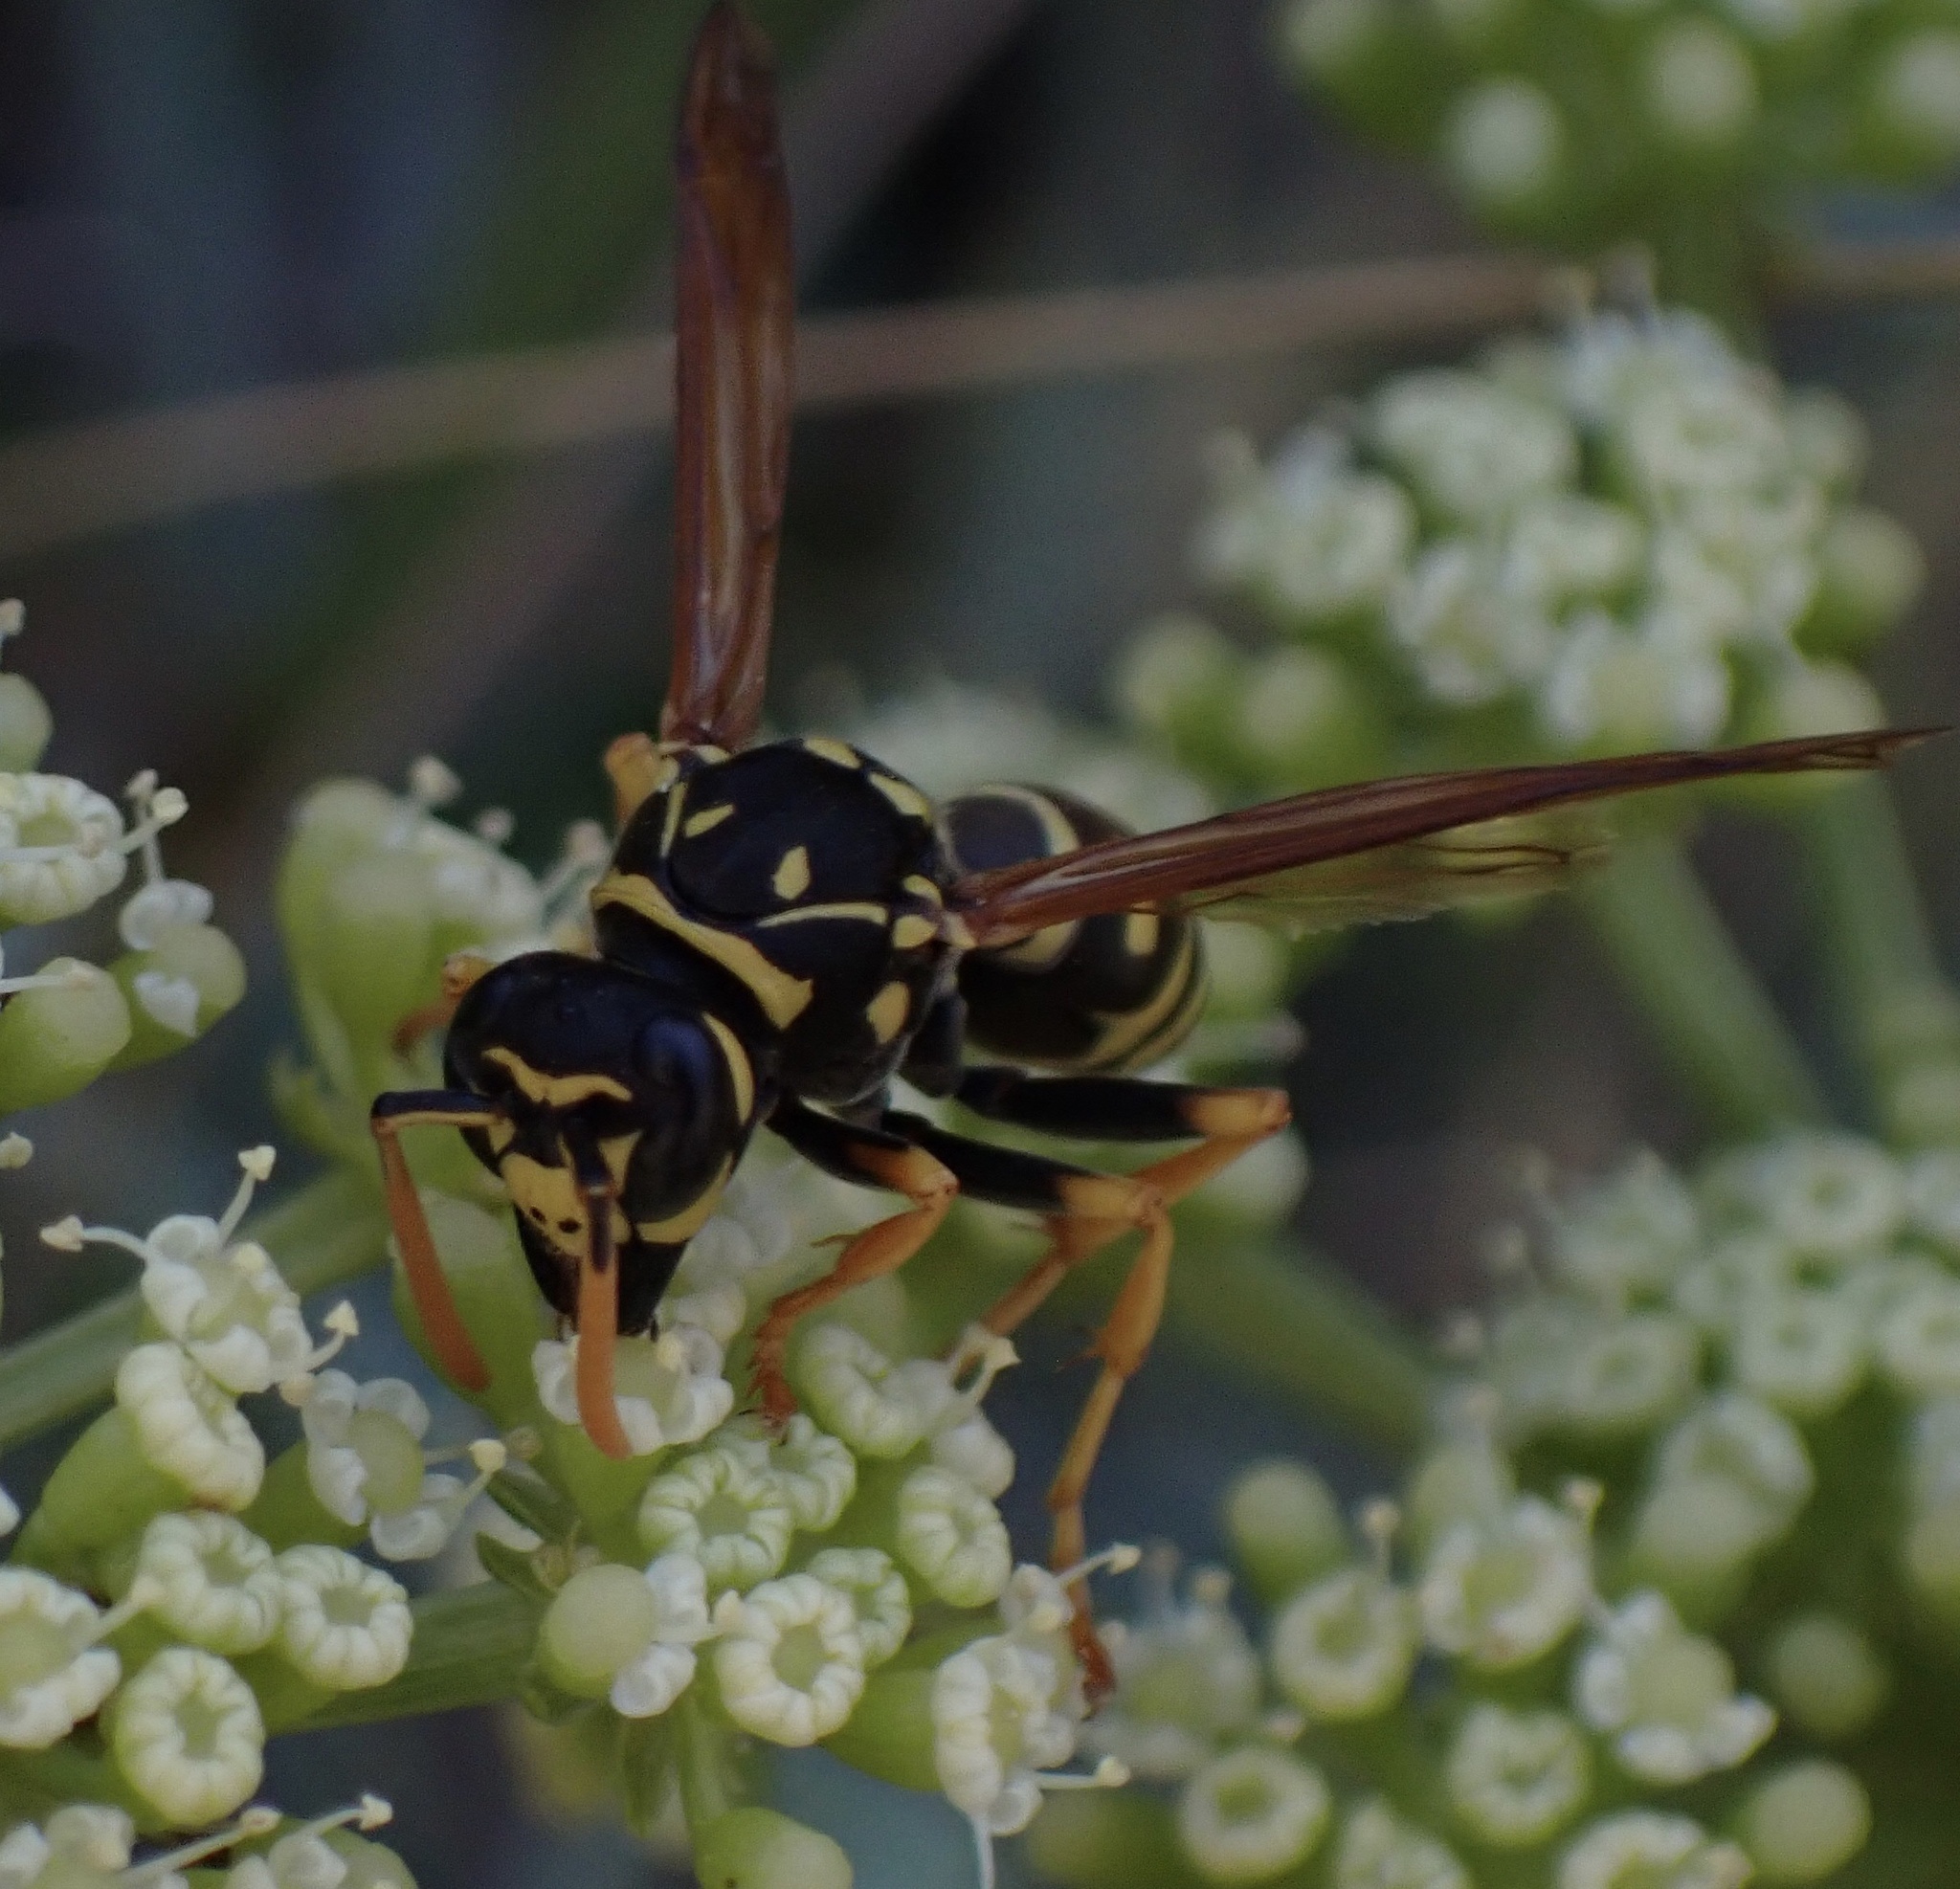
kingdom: Animalia
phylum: Arthropoda
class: Insecta
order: Hymenoptera
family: Eumenidae
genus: Polistes
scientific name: Polistes dominula
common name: Paper wasp
